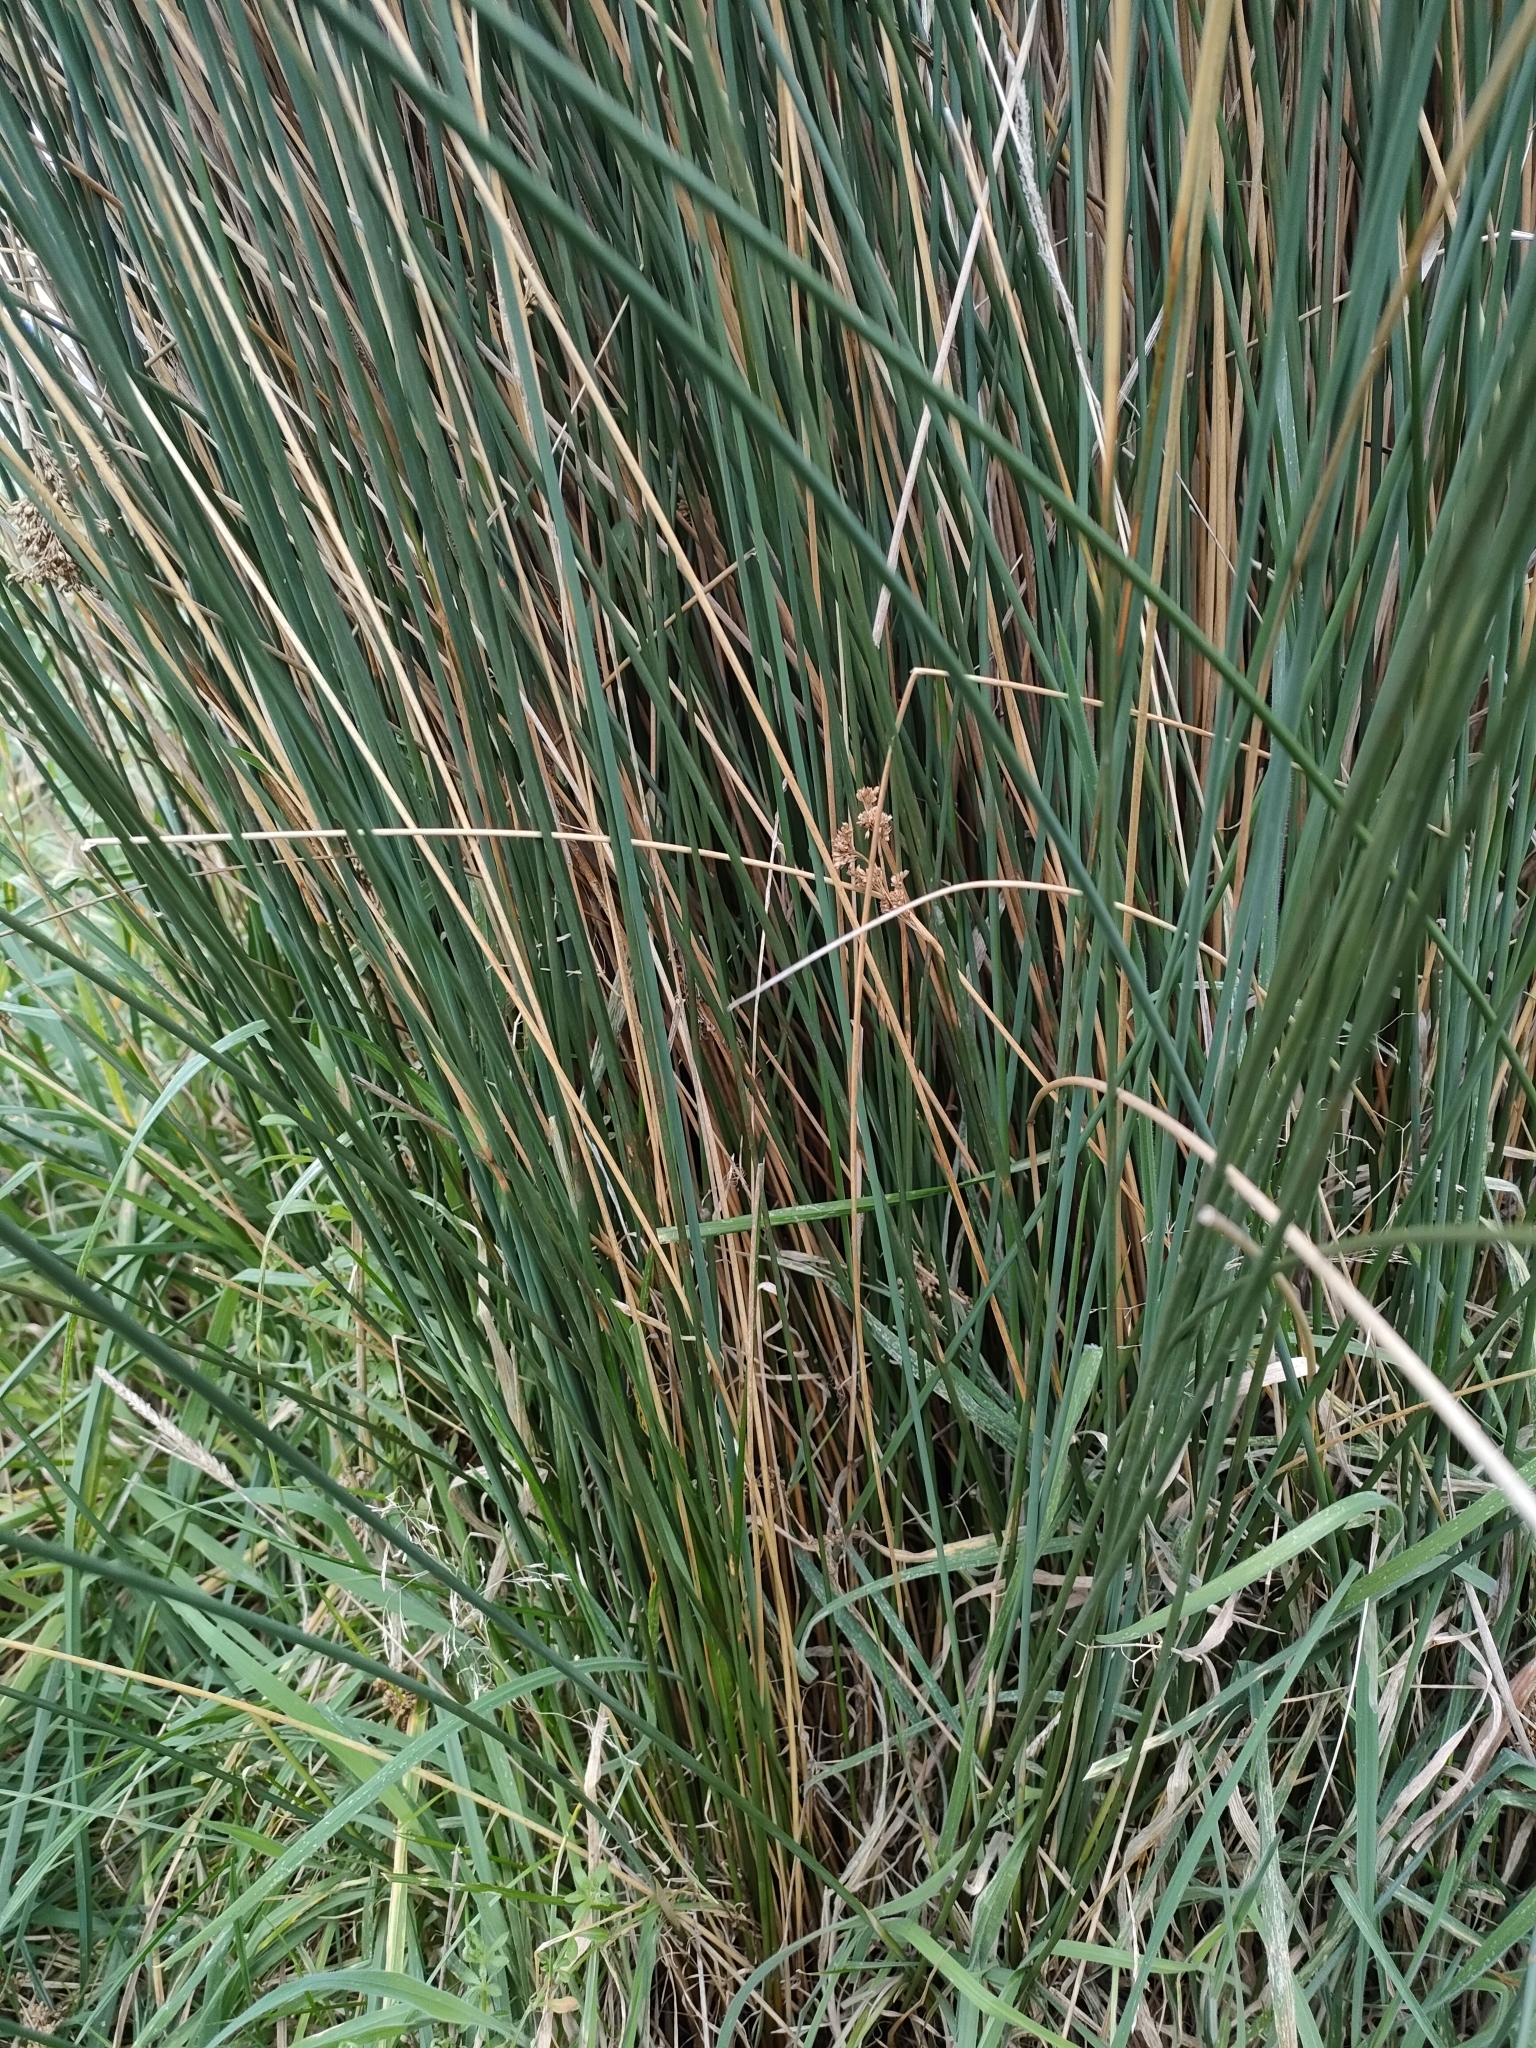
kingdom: Plantae
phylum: Tracheophyta
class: Liliopsida
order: Poales
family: Juncaceae
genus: Juncus
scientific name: Juncus sarophorus
